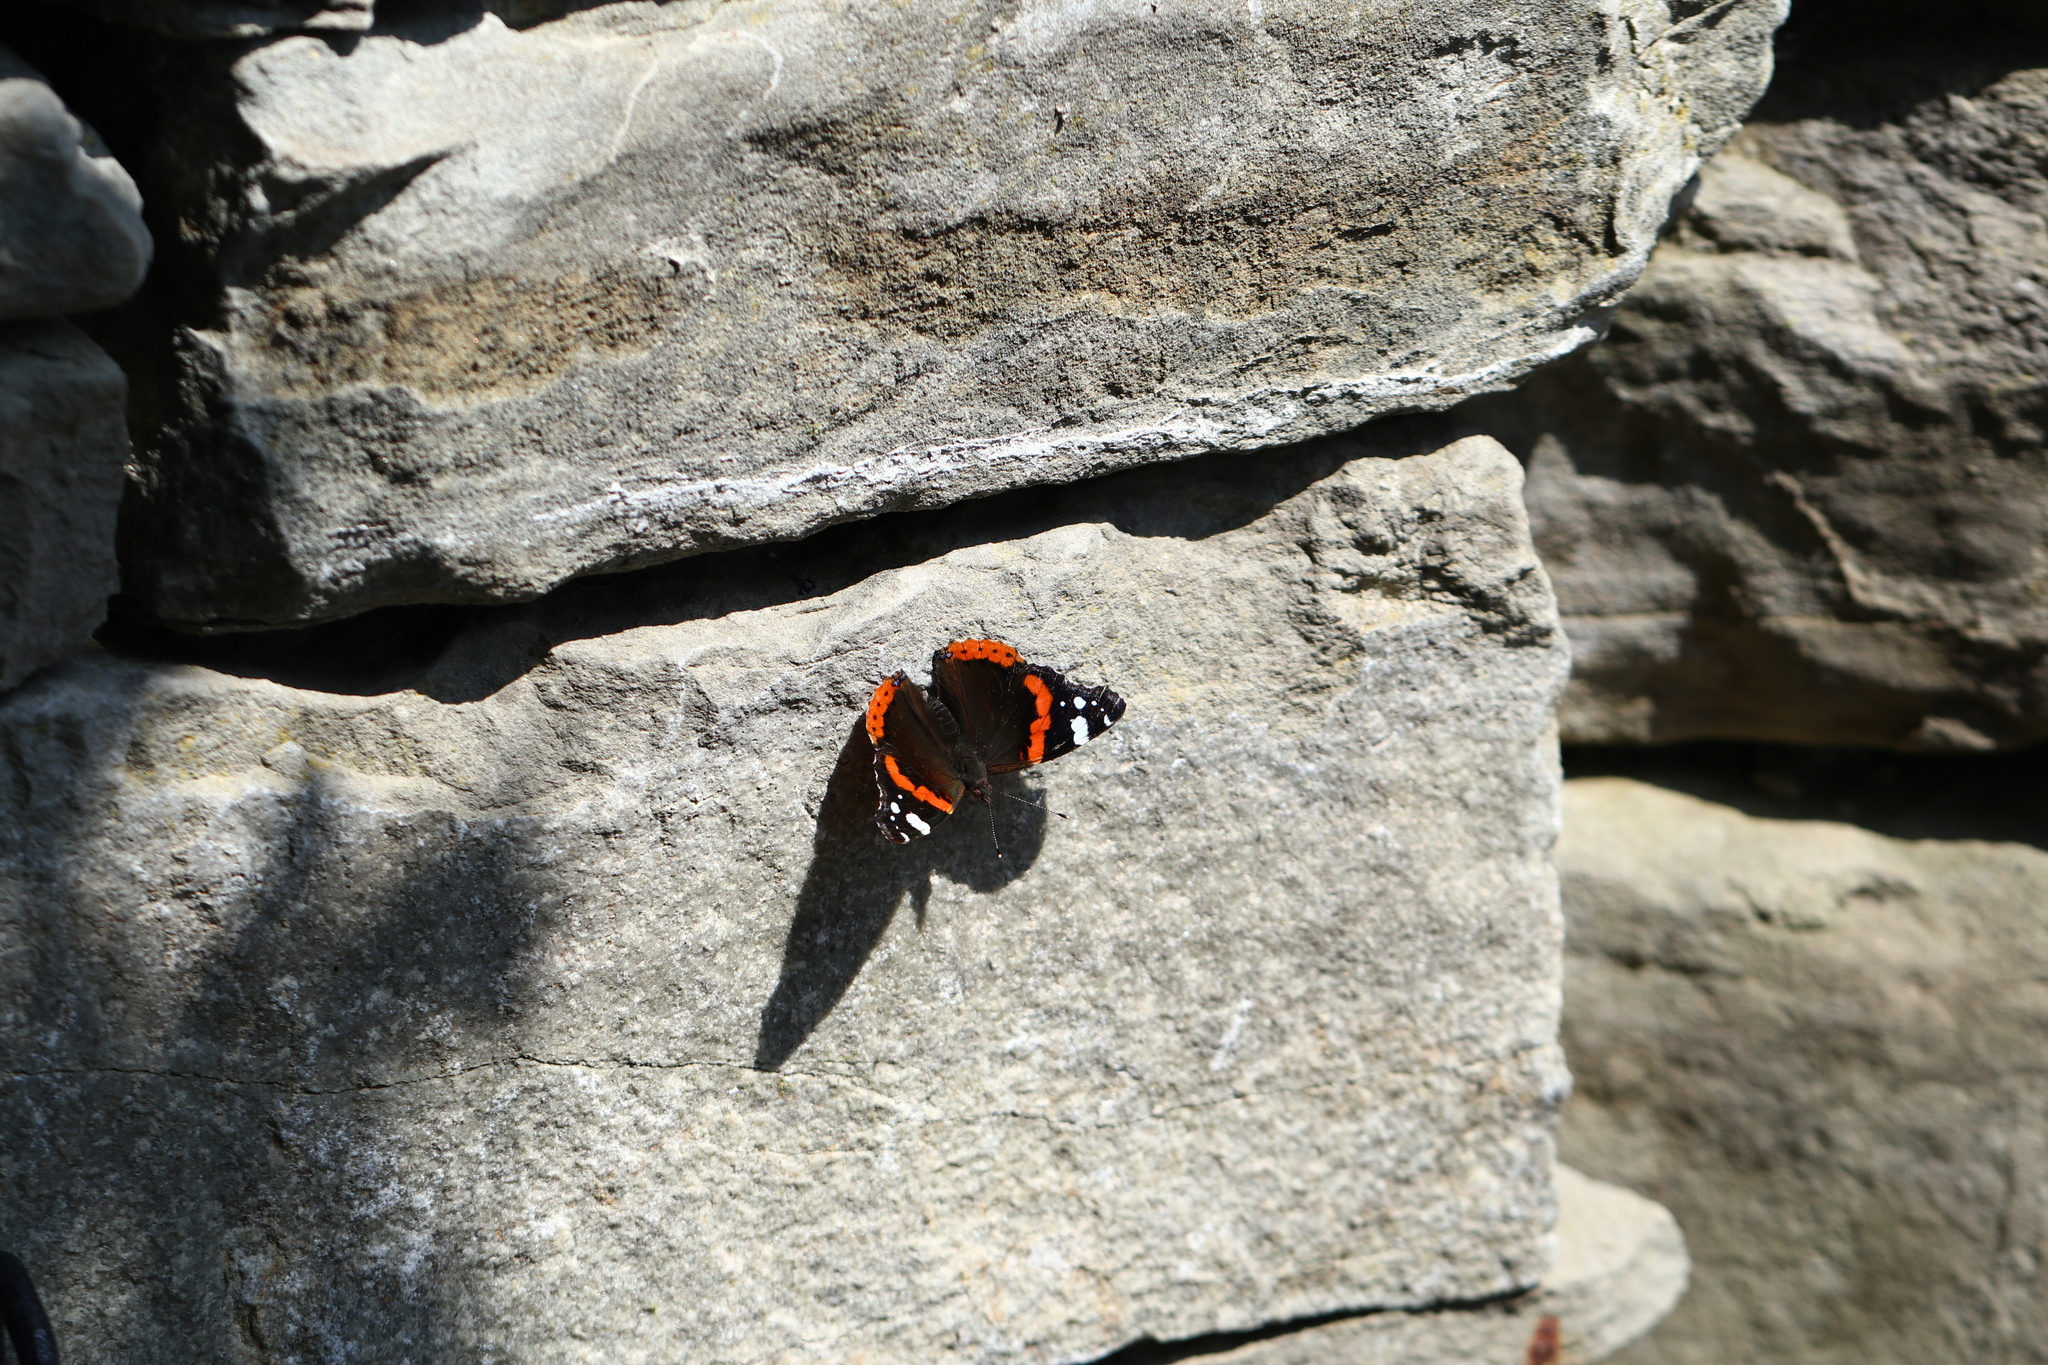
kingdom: Animalia
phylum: Arthropoda
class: Insecta
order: Lepidoptera
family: Nymphalidae
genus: Vanessa
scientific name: Vanessa atalanta
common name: Red admiral
